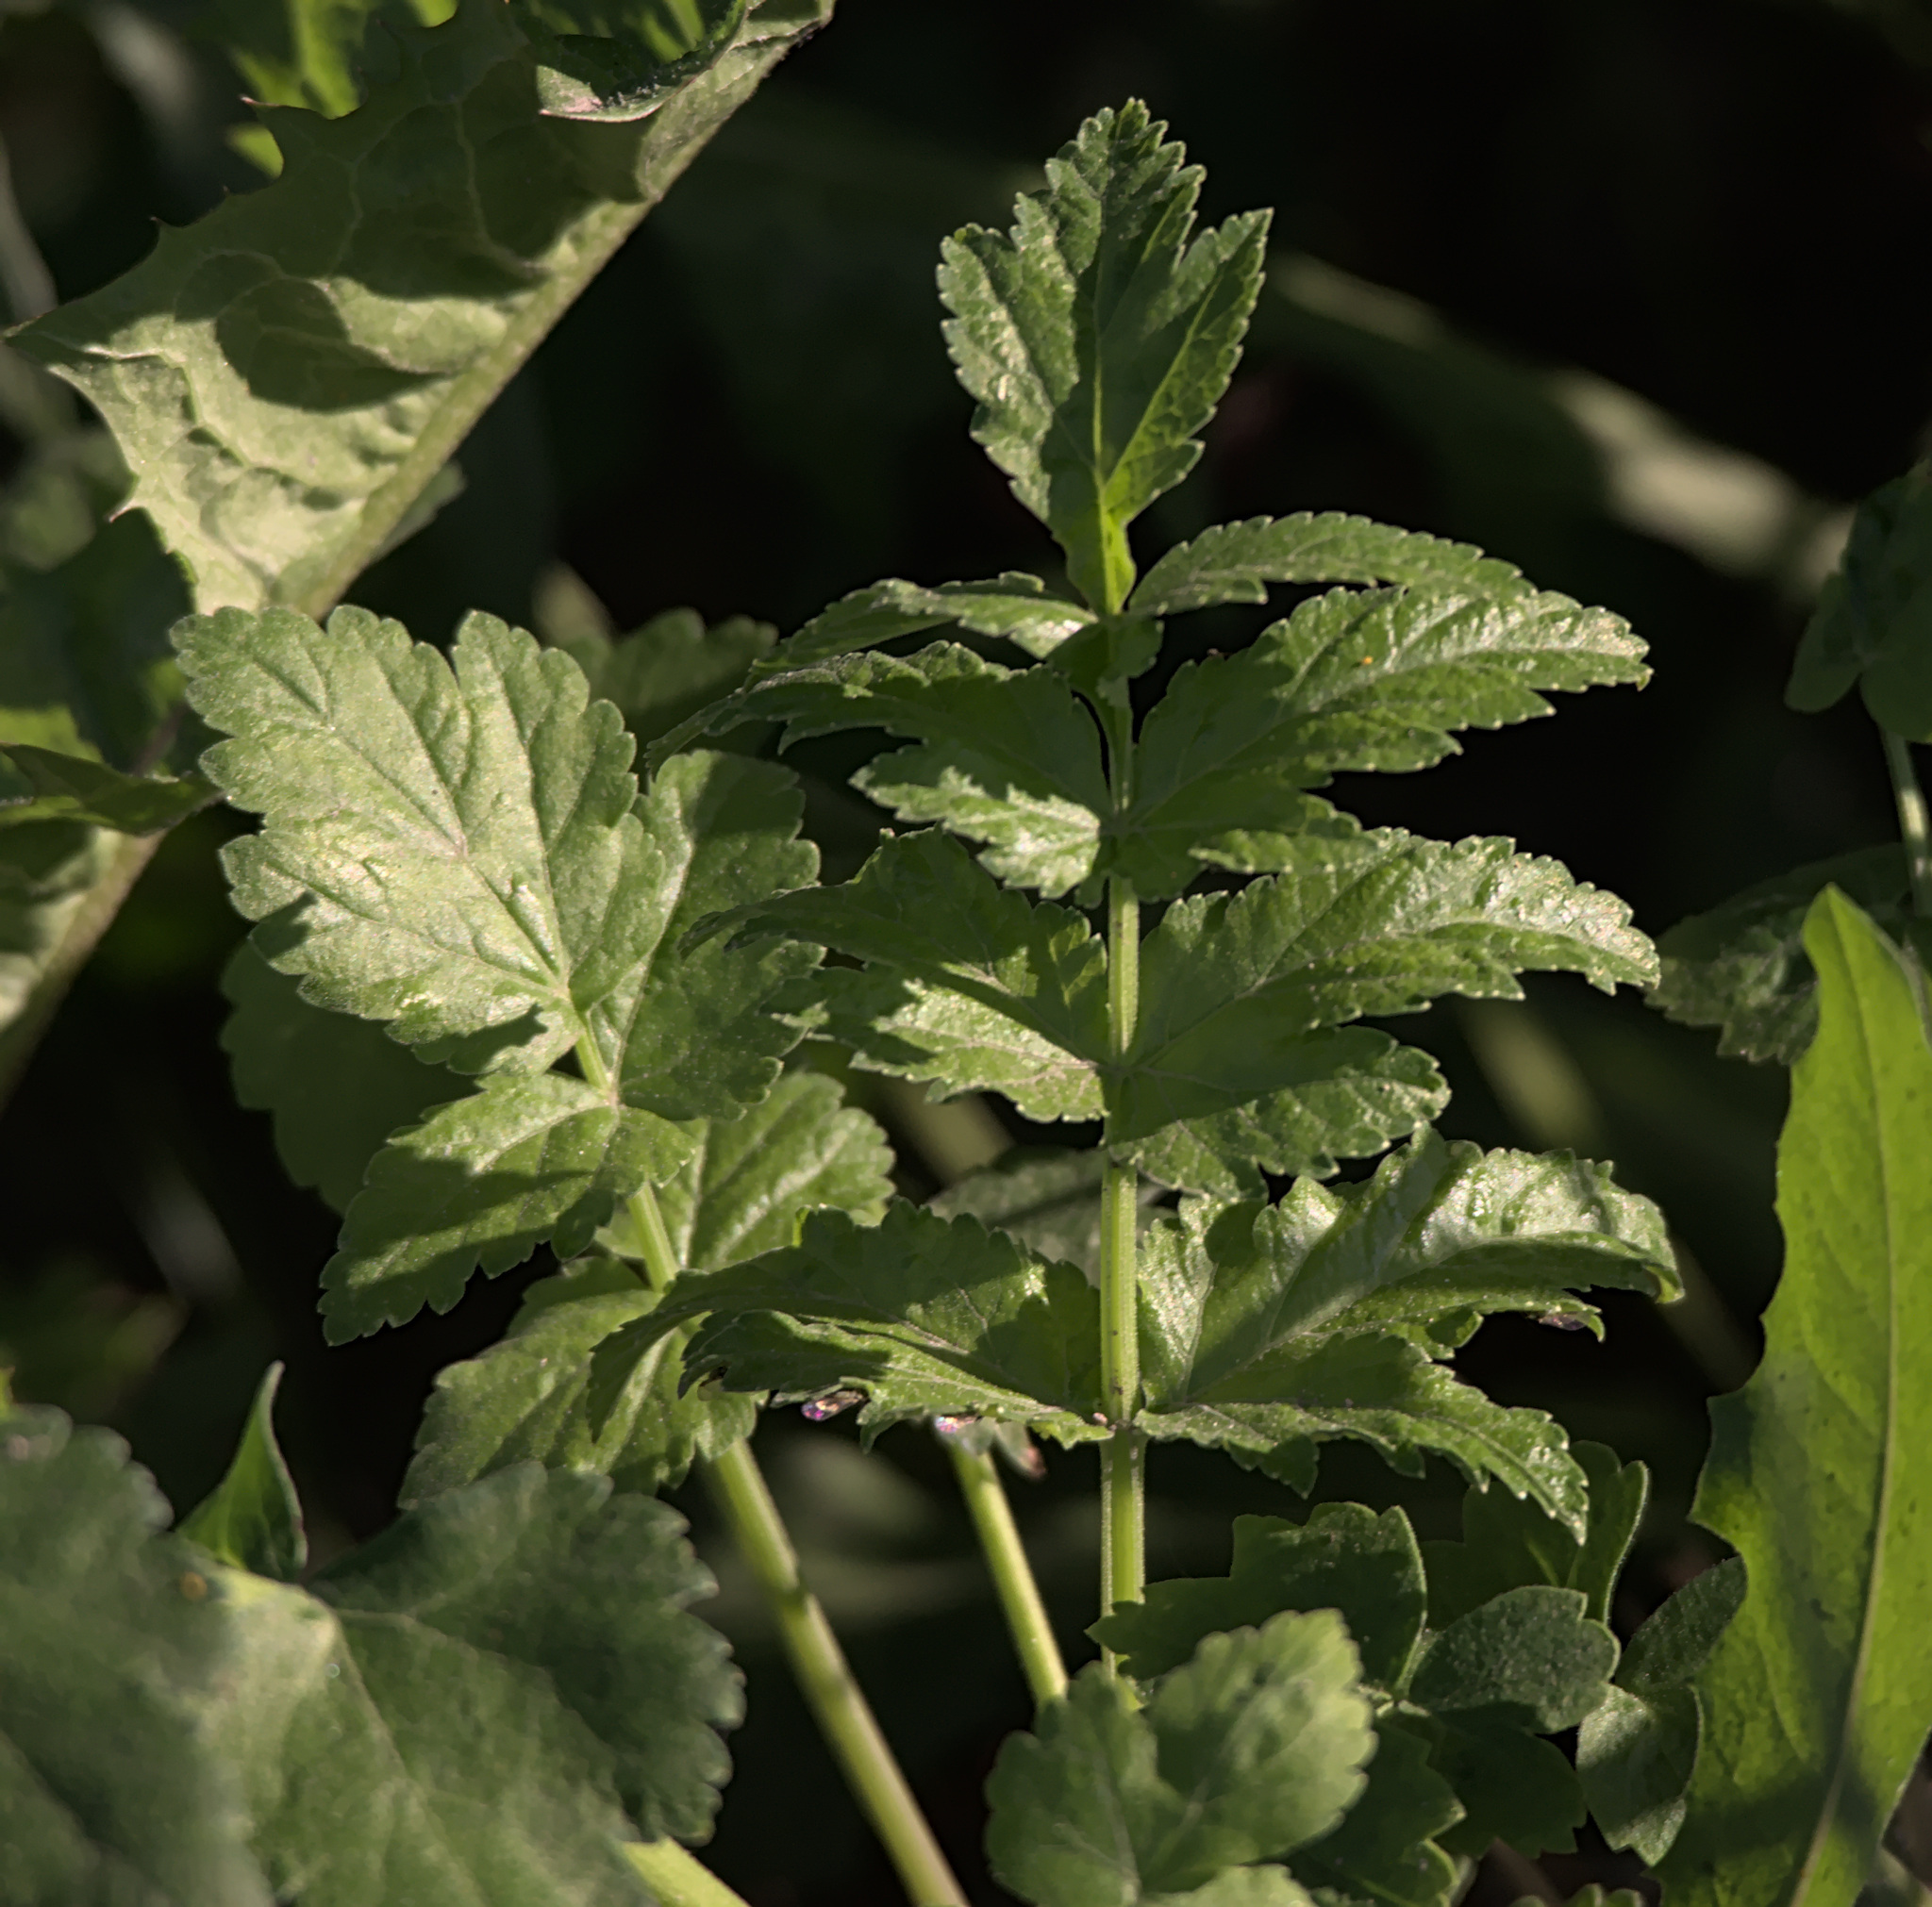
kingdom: Plantae
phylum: Tracheophyta
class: Magnoliopsida
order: Apiales
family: Apiaceae
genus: Pastinaca
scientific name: Pastinaca sativa
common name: Wild parsnip
